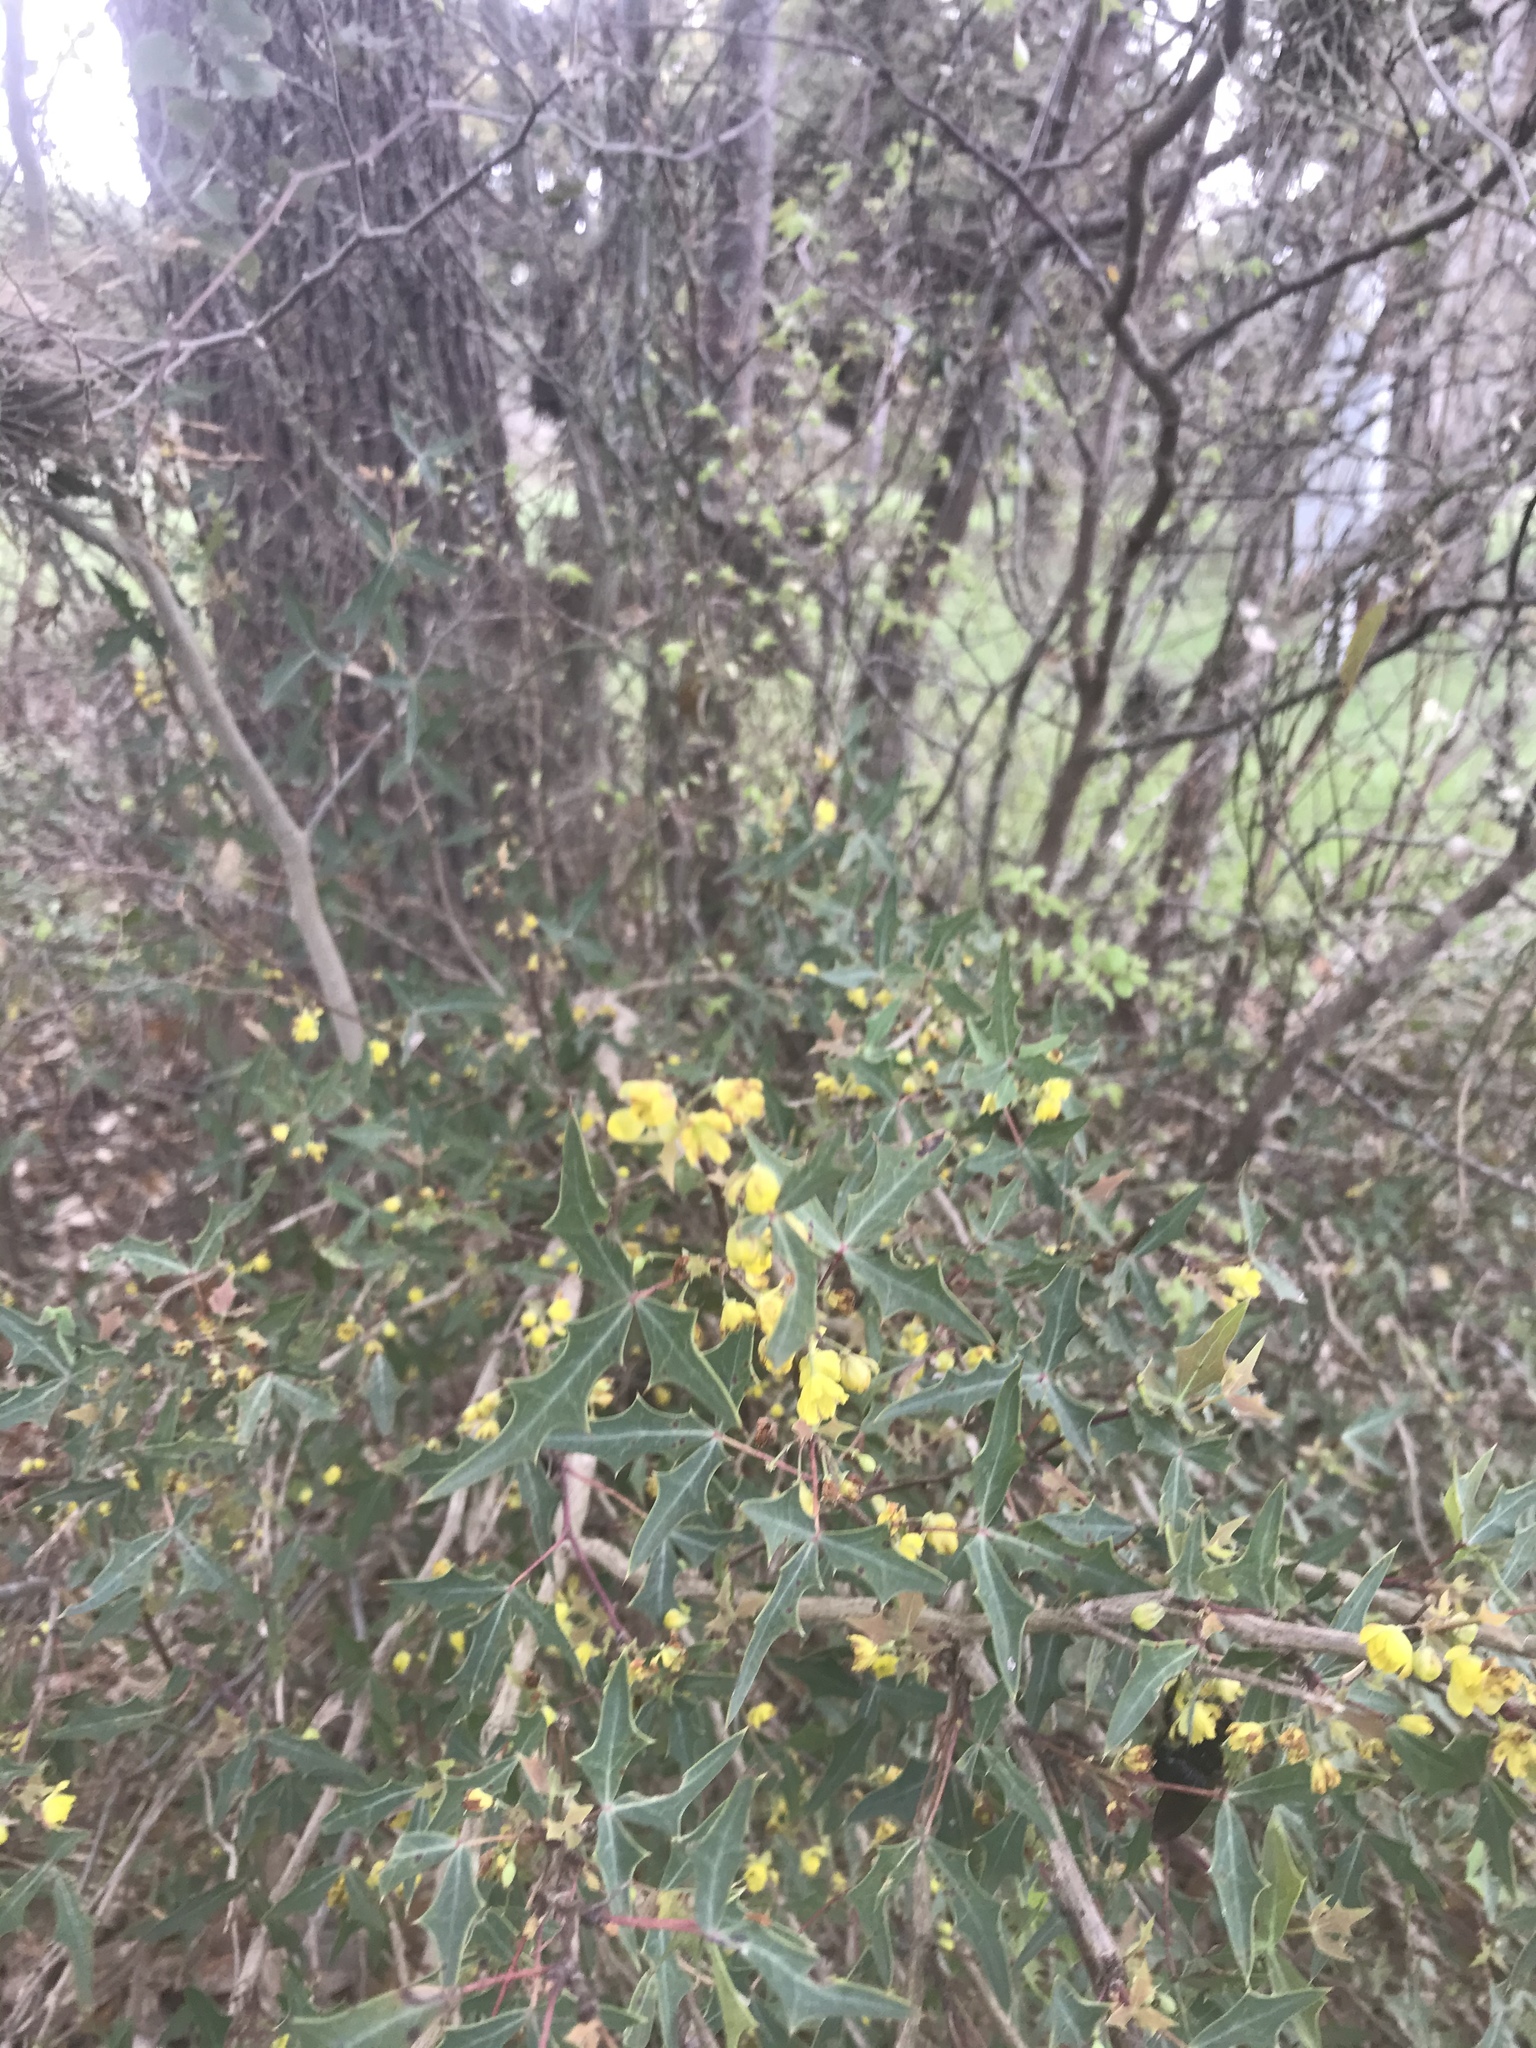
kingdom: Plantae
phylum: Tracheophyta
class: Magnoliopsida
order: Ranunculales
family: Berberidaceae
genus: Alloberberis
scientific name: Alloberberis trifoliolata
